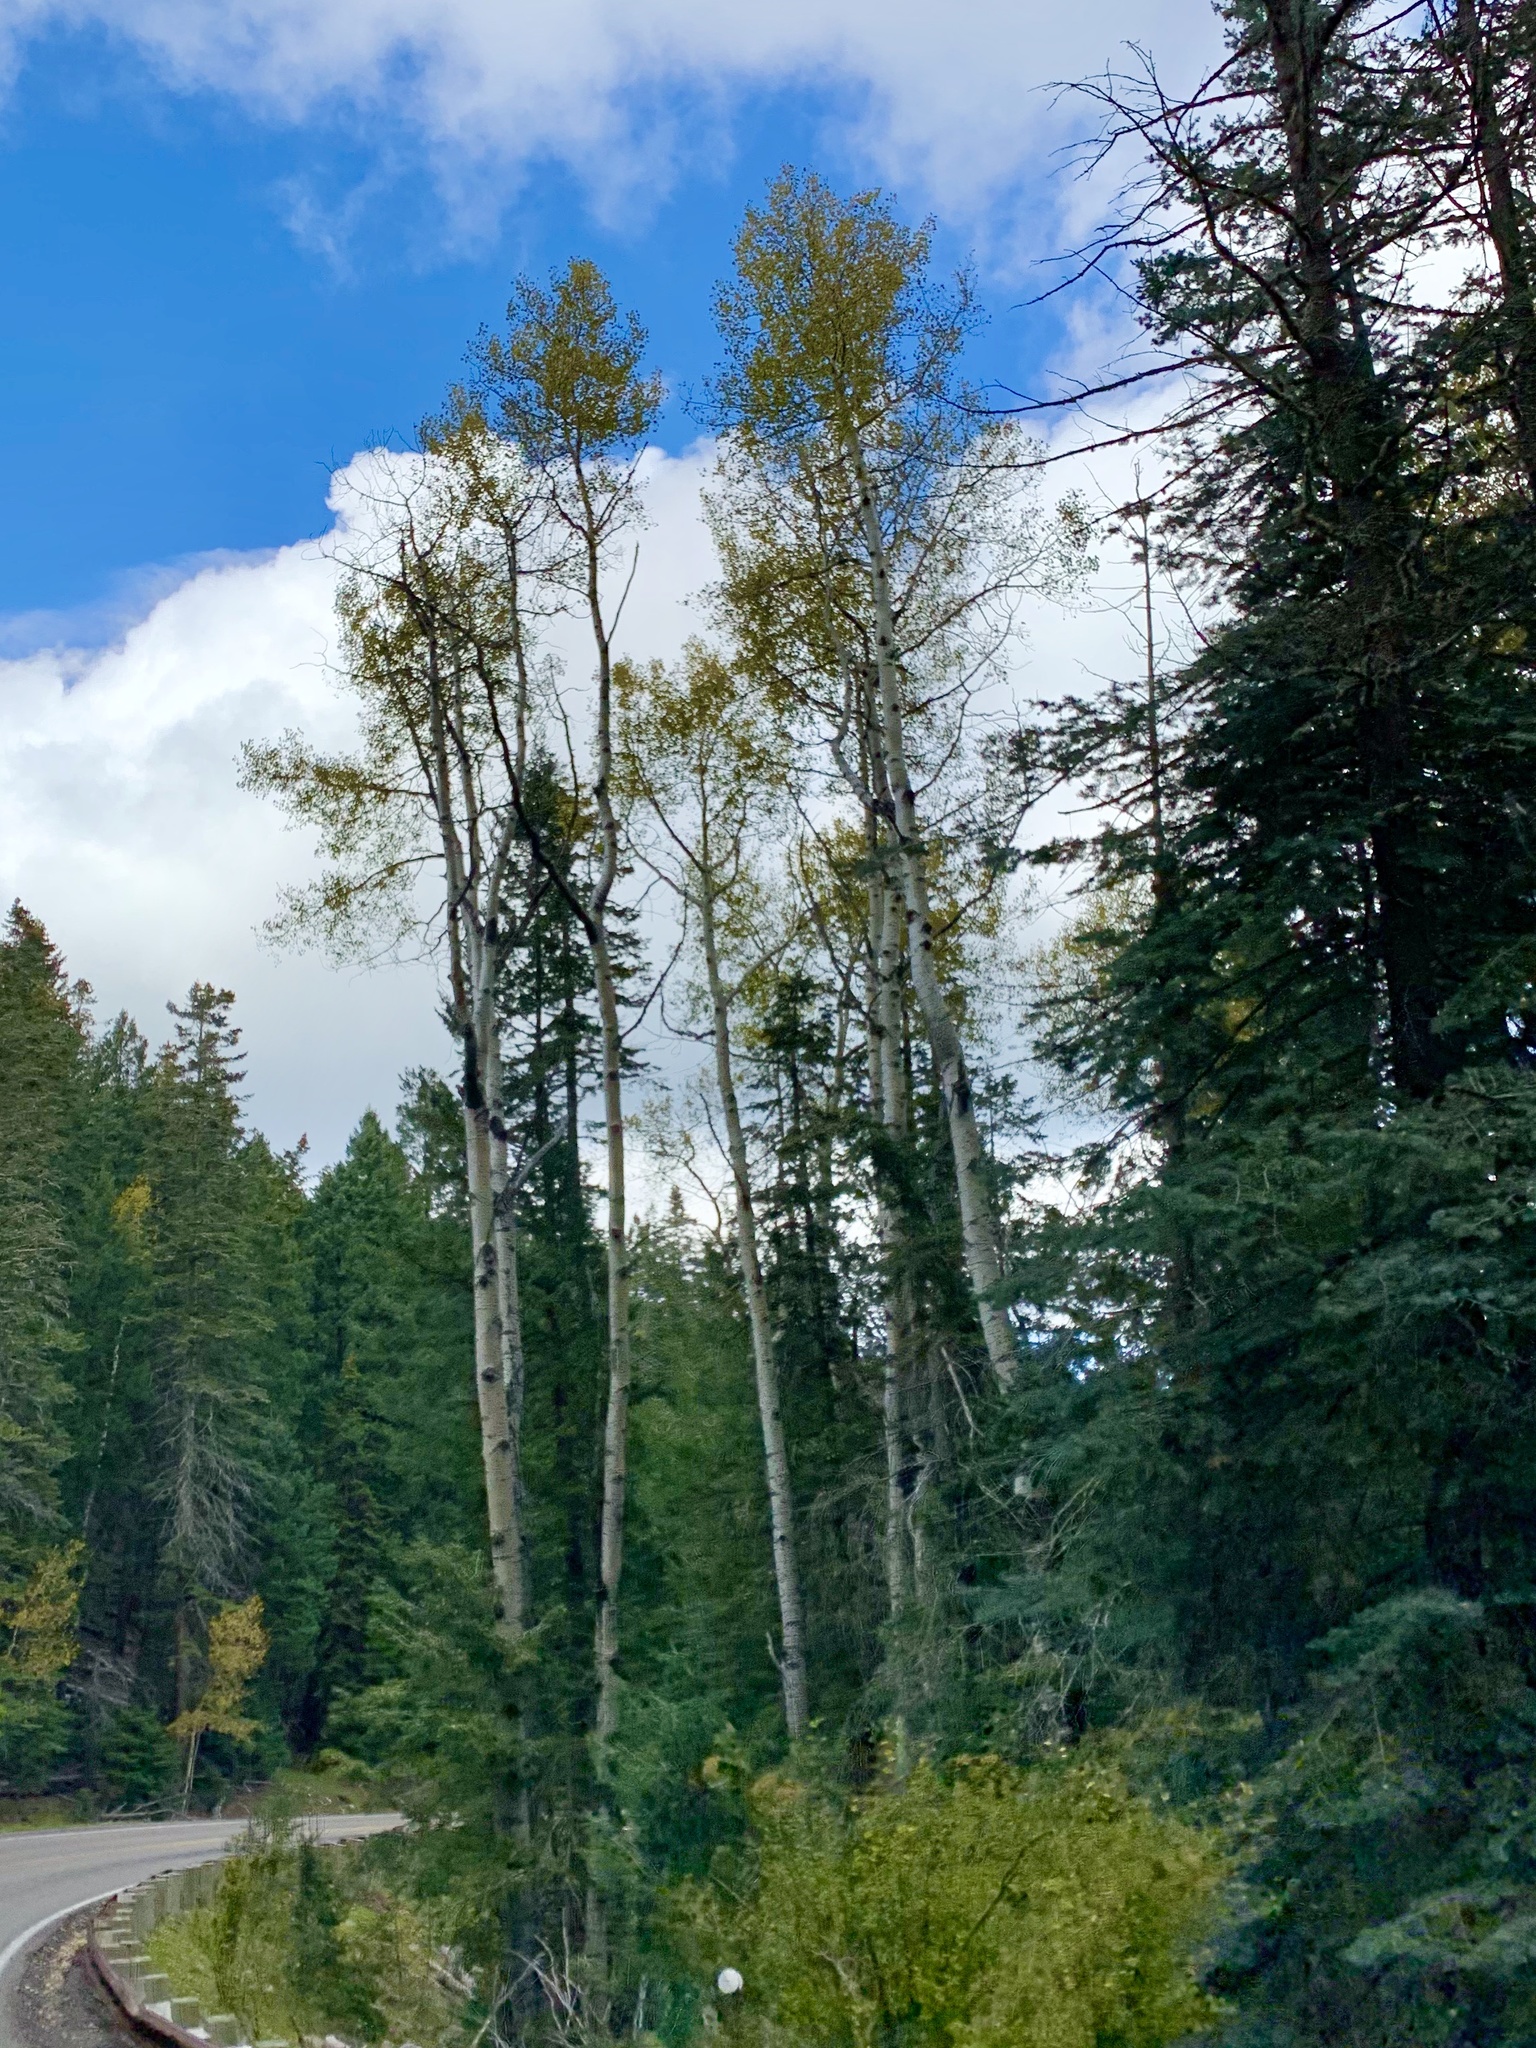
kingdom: Plantae
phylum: Tracheophyta
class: Magnoliopsida
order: Malpighiales
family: Salicaceae
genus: Populus
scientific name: Populus tremuloides
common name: Quaking aspen
